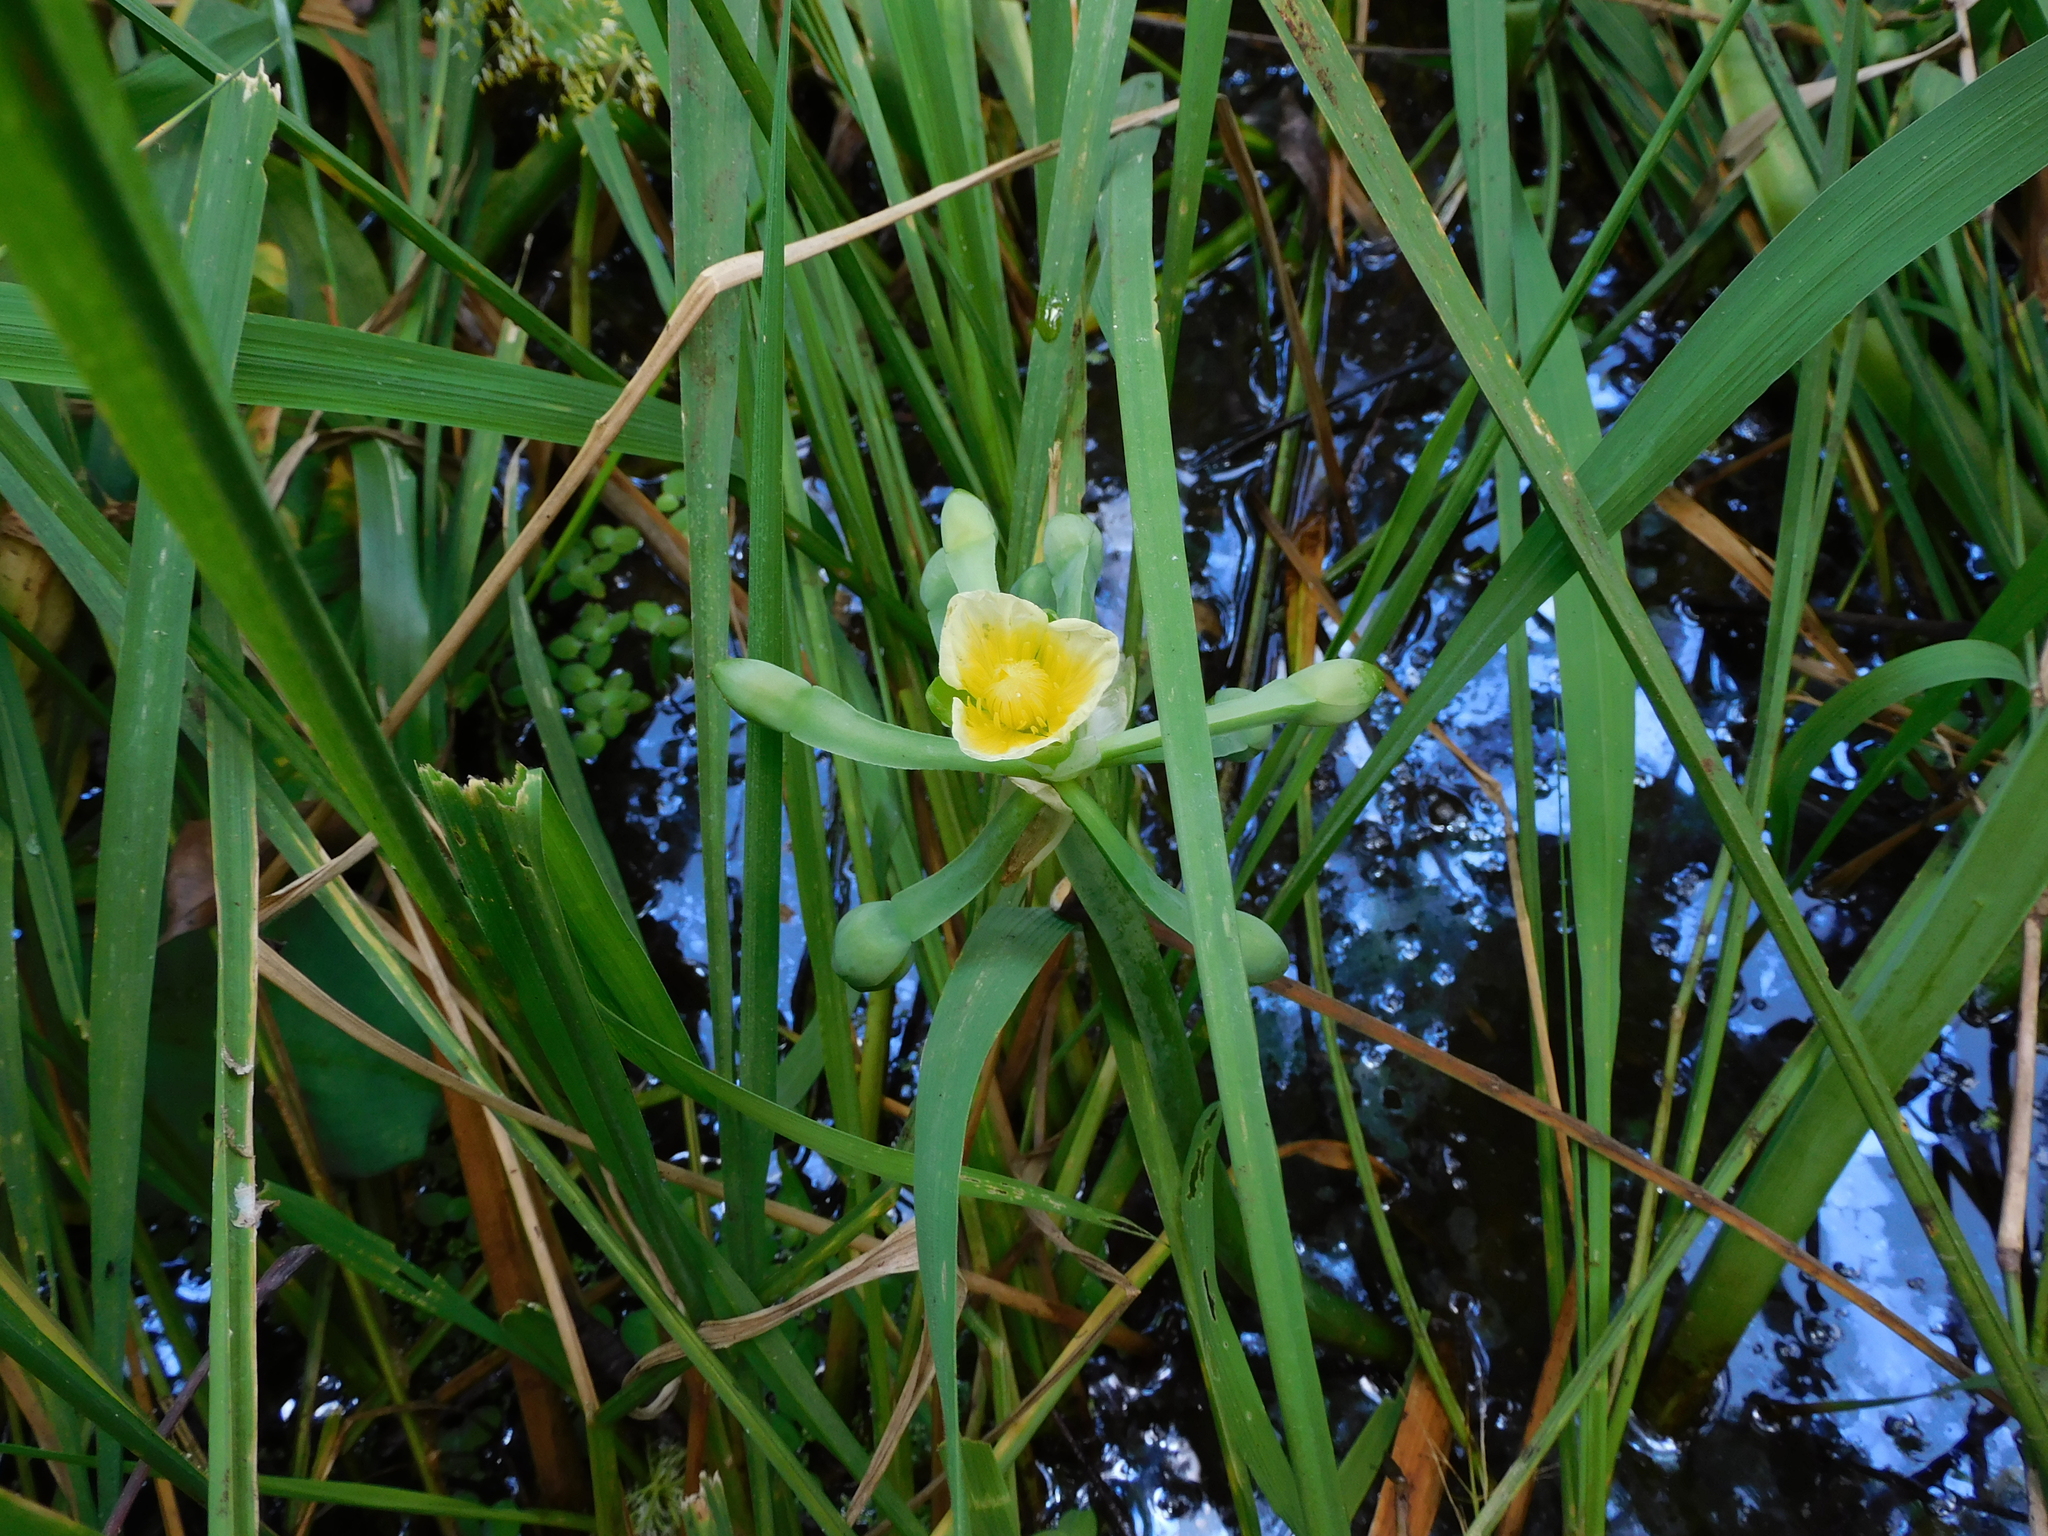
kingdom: Plantae
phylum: Tracheophyta
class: Liliopsida
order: Alismatales
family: Alismataceae
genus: Limnocharis
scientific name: Limnocharis flava
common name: Sawah-flower-rush
